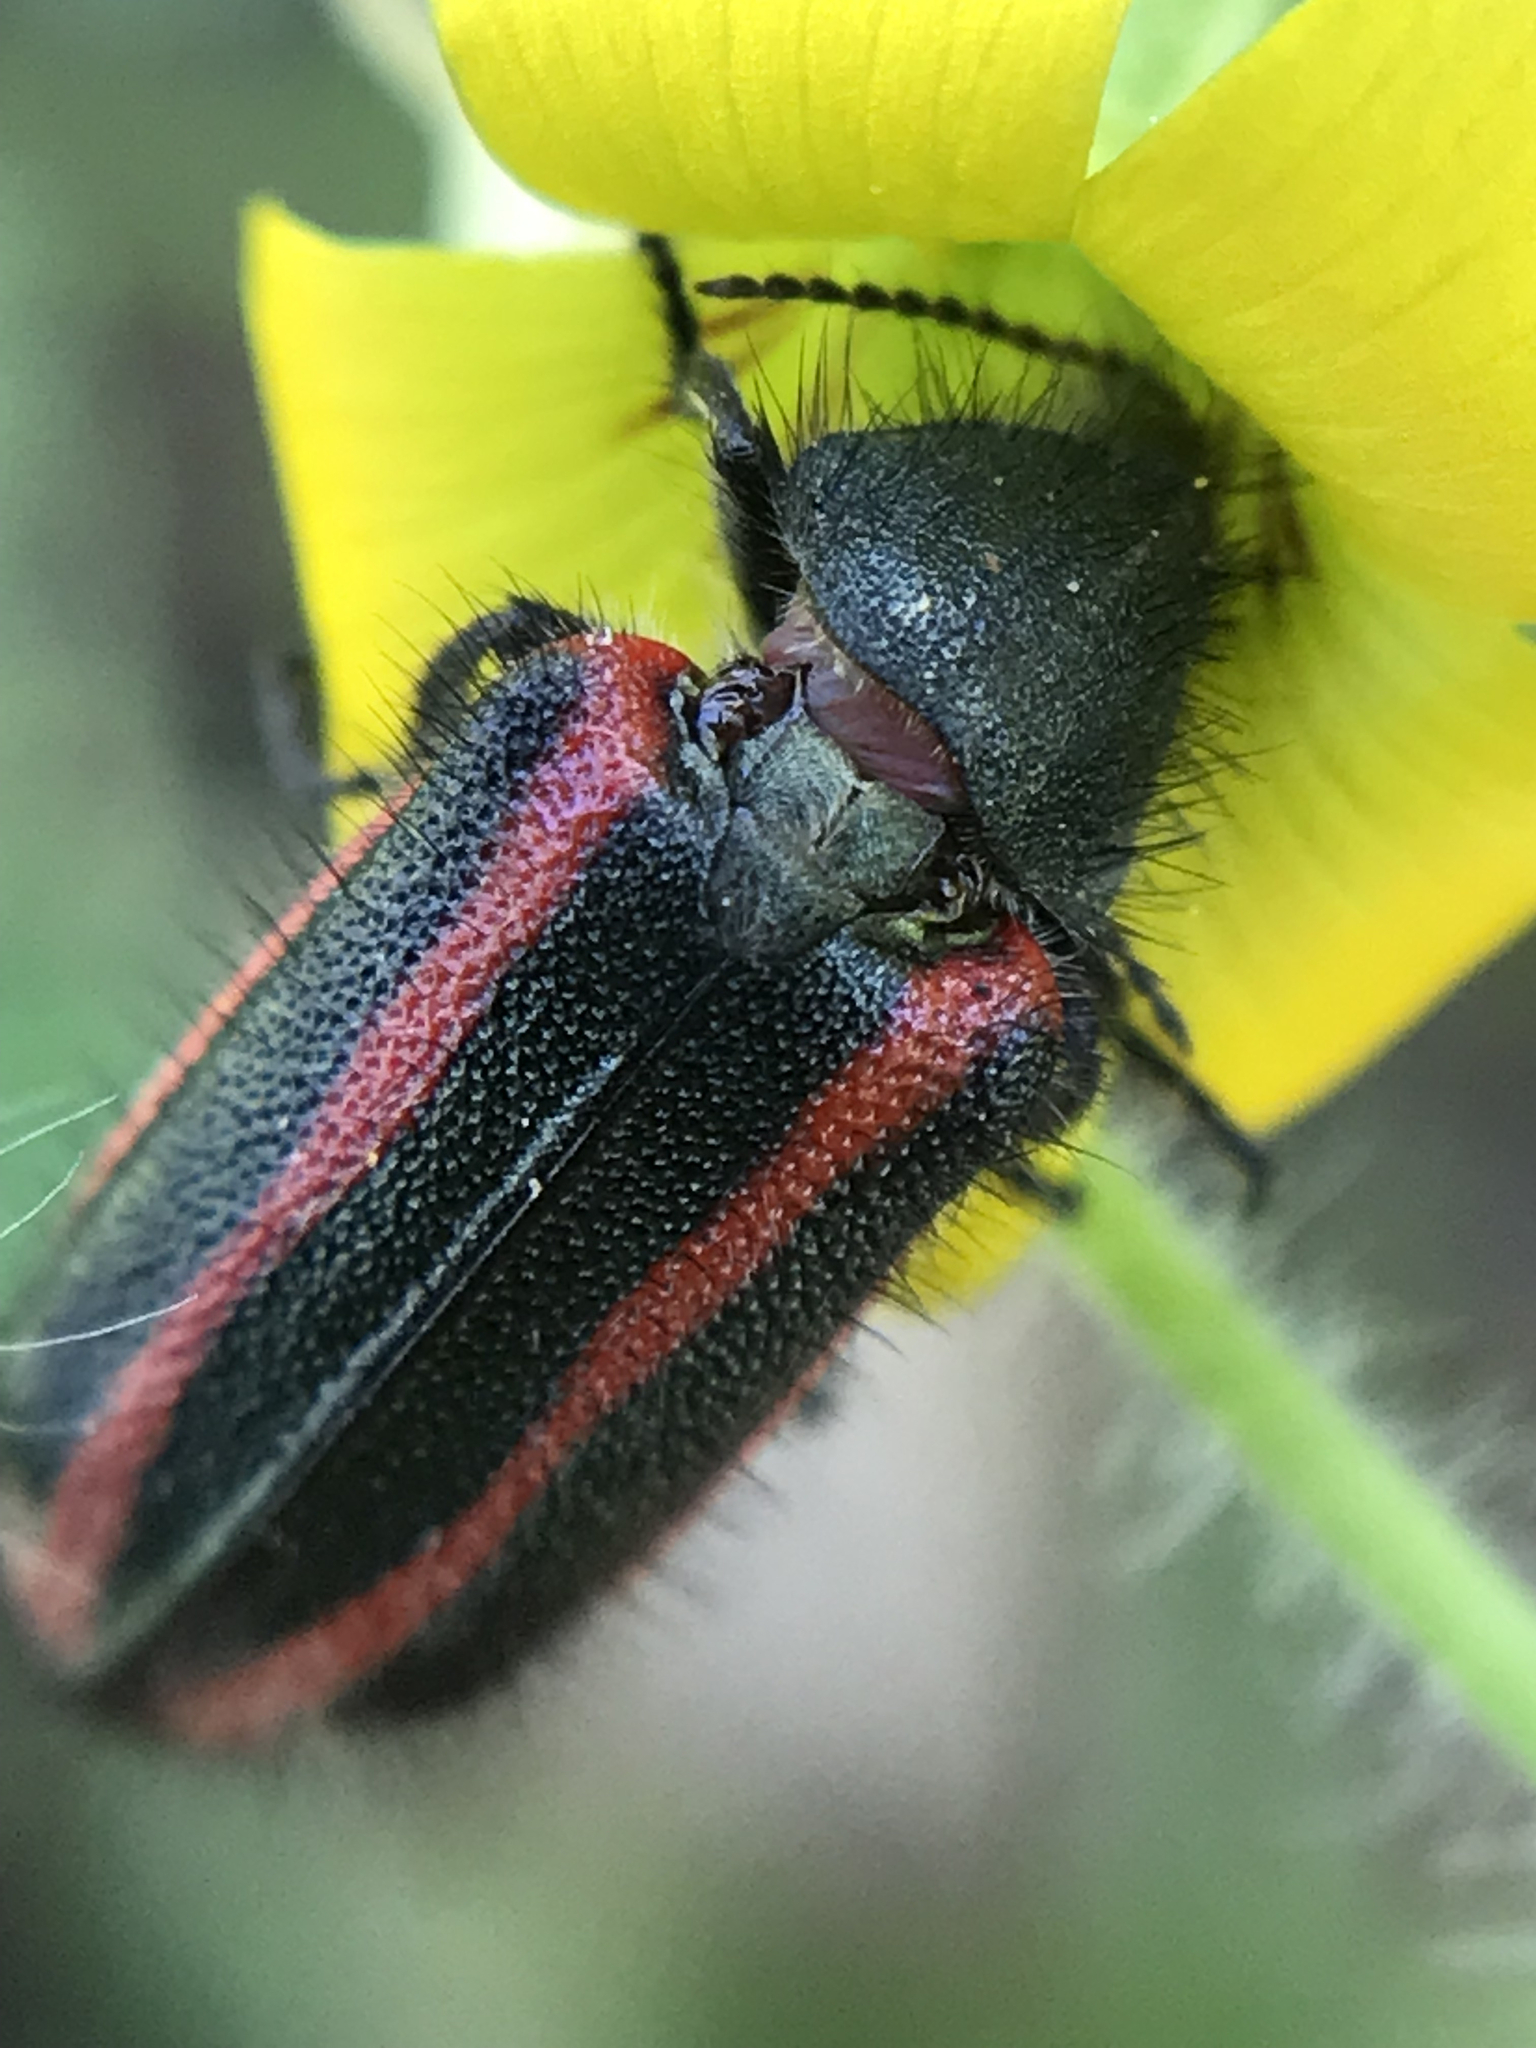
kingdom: Animalia
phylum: Arthropoda
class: Insecta
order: Coleoptera
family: Melyridae
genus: Astylus
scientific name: Astylus
